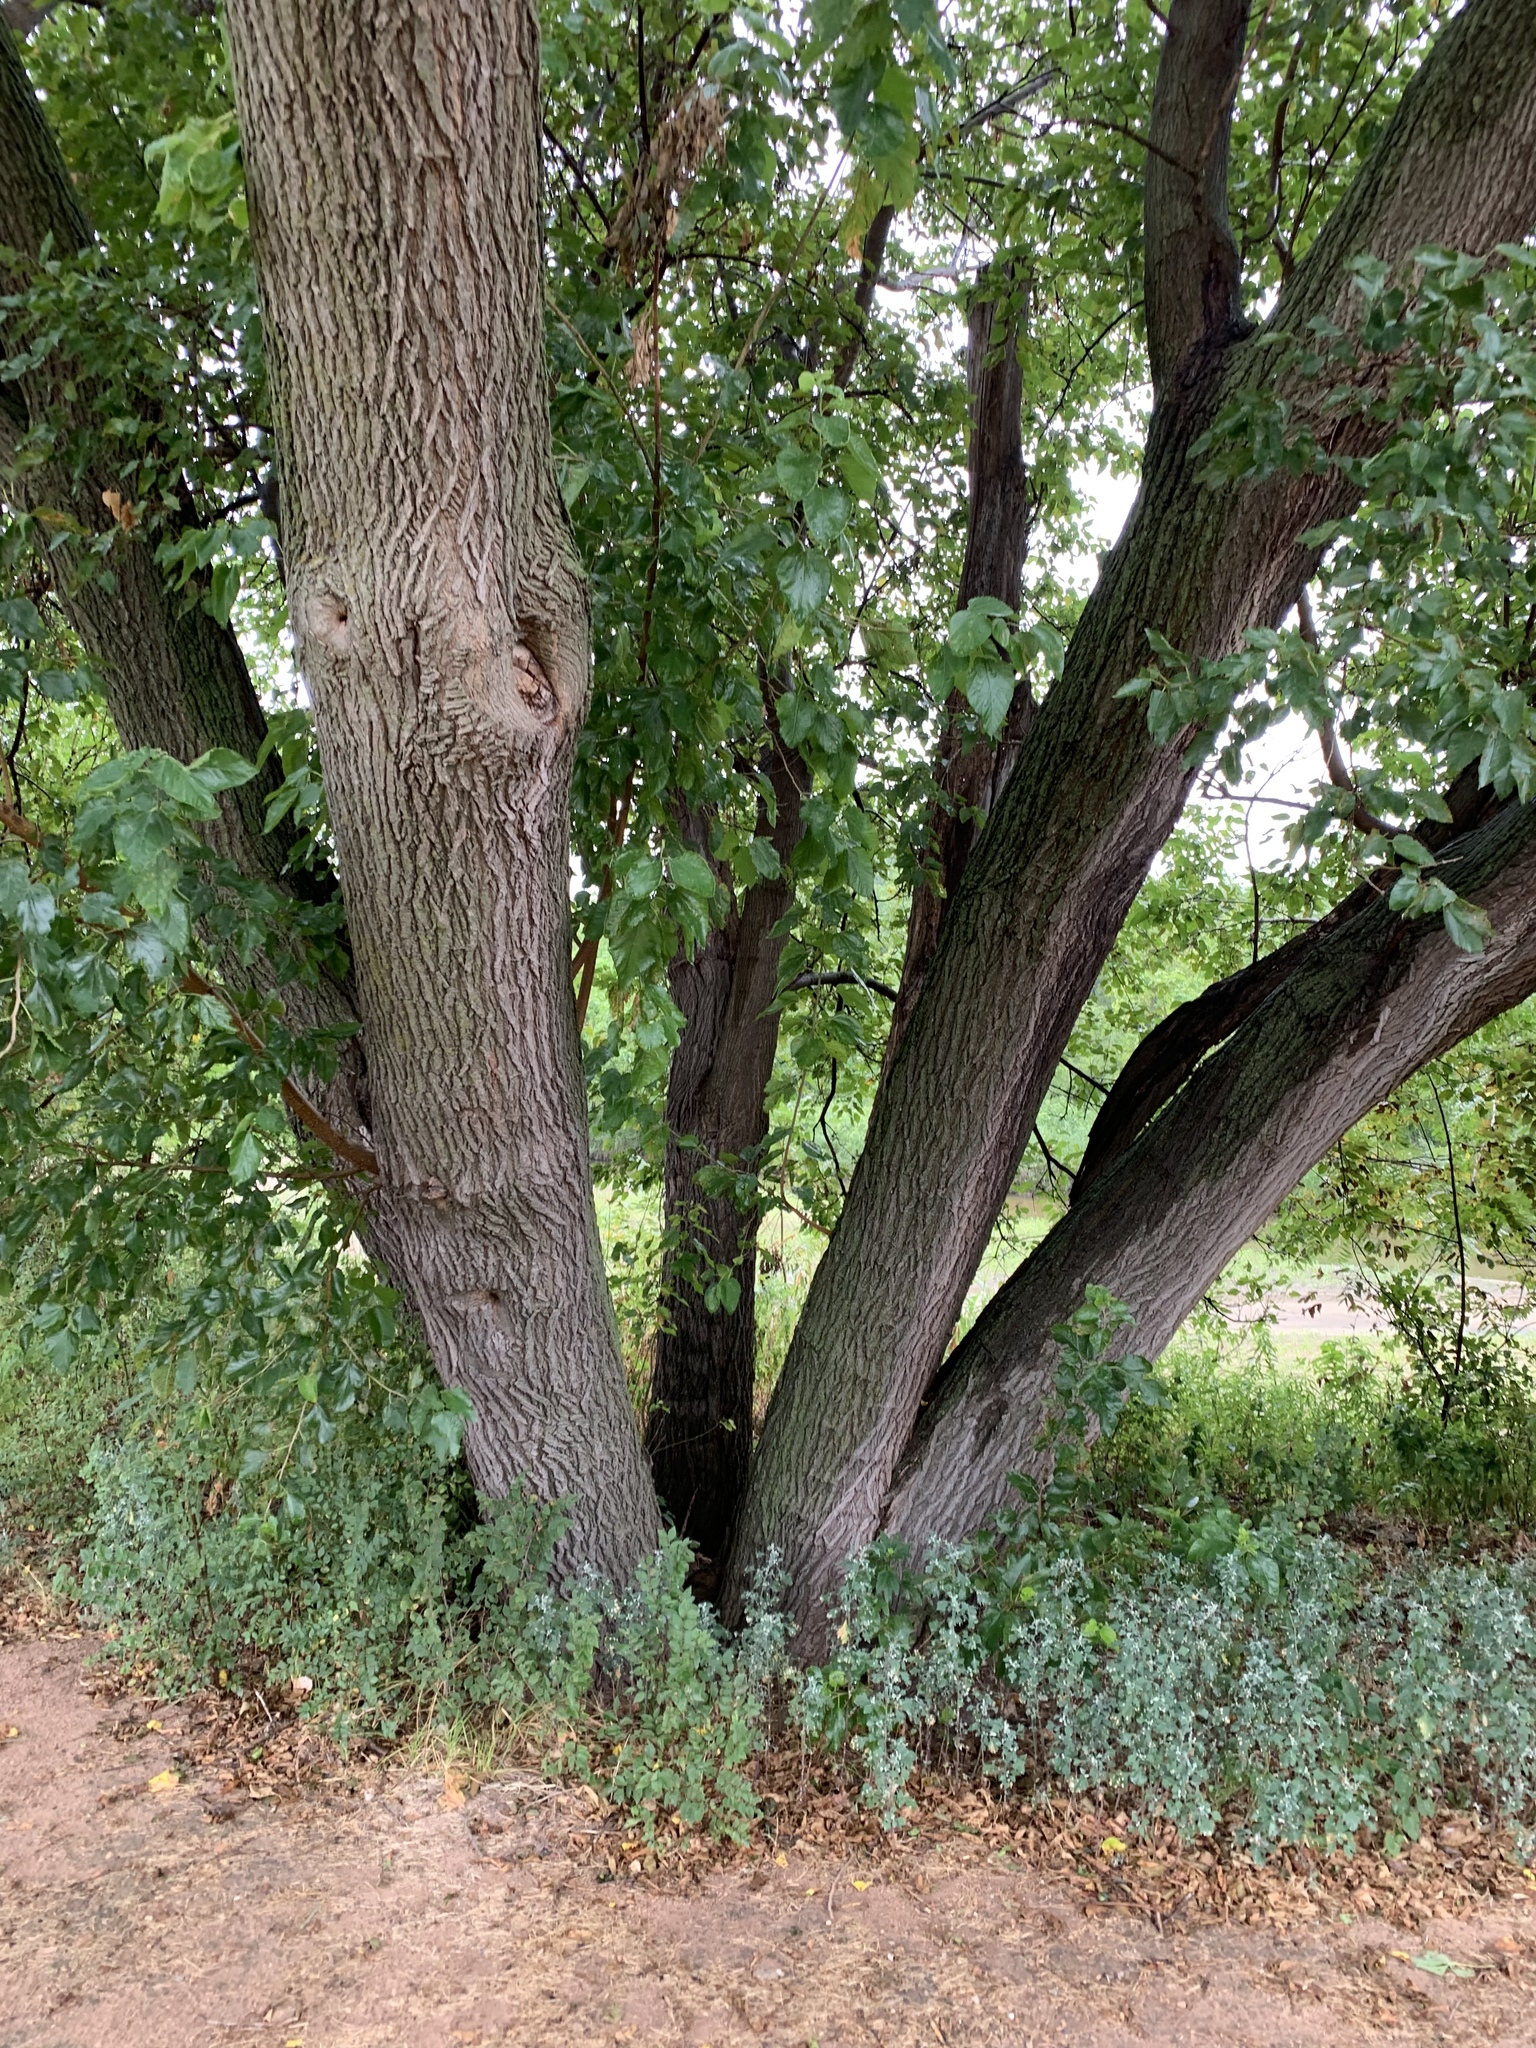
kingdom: Plantae
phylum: Tracheophyta
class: Magnoliopsida
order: Rosales
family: Moraceae
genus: Morus
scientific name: Morus alba
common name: White mulberry
